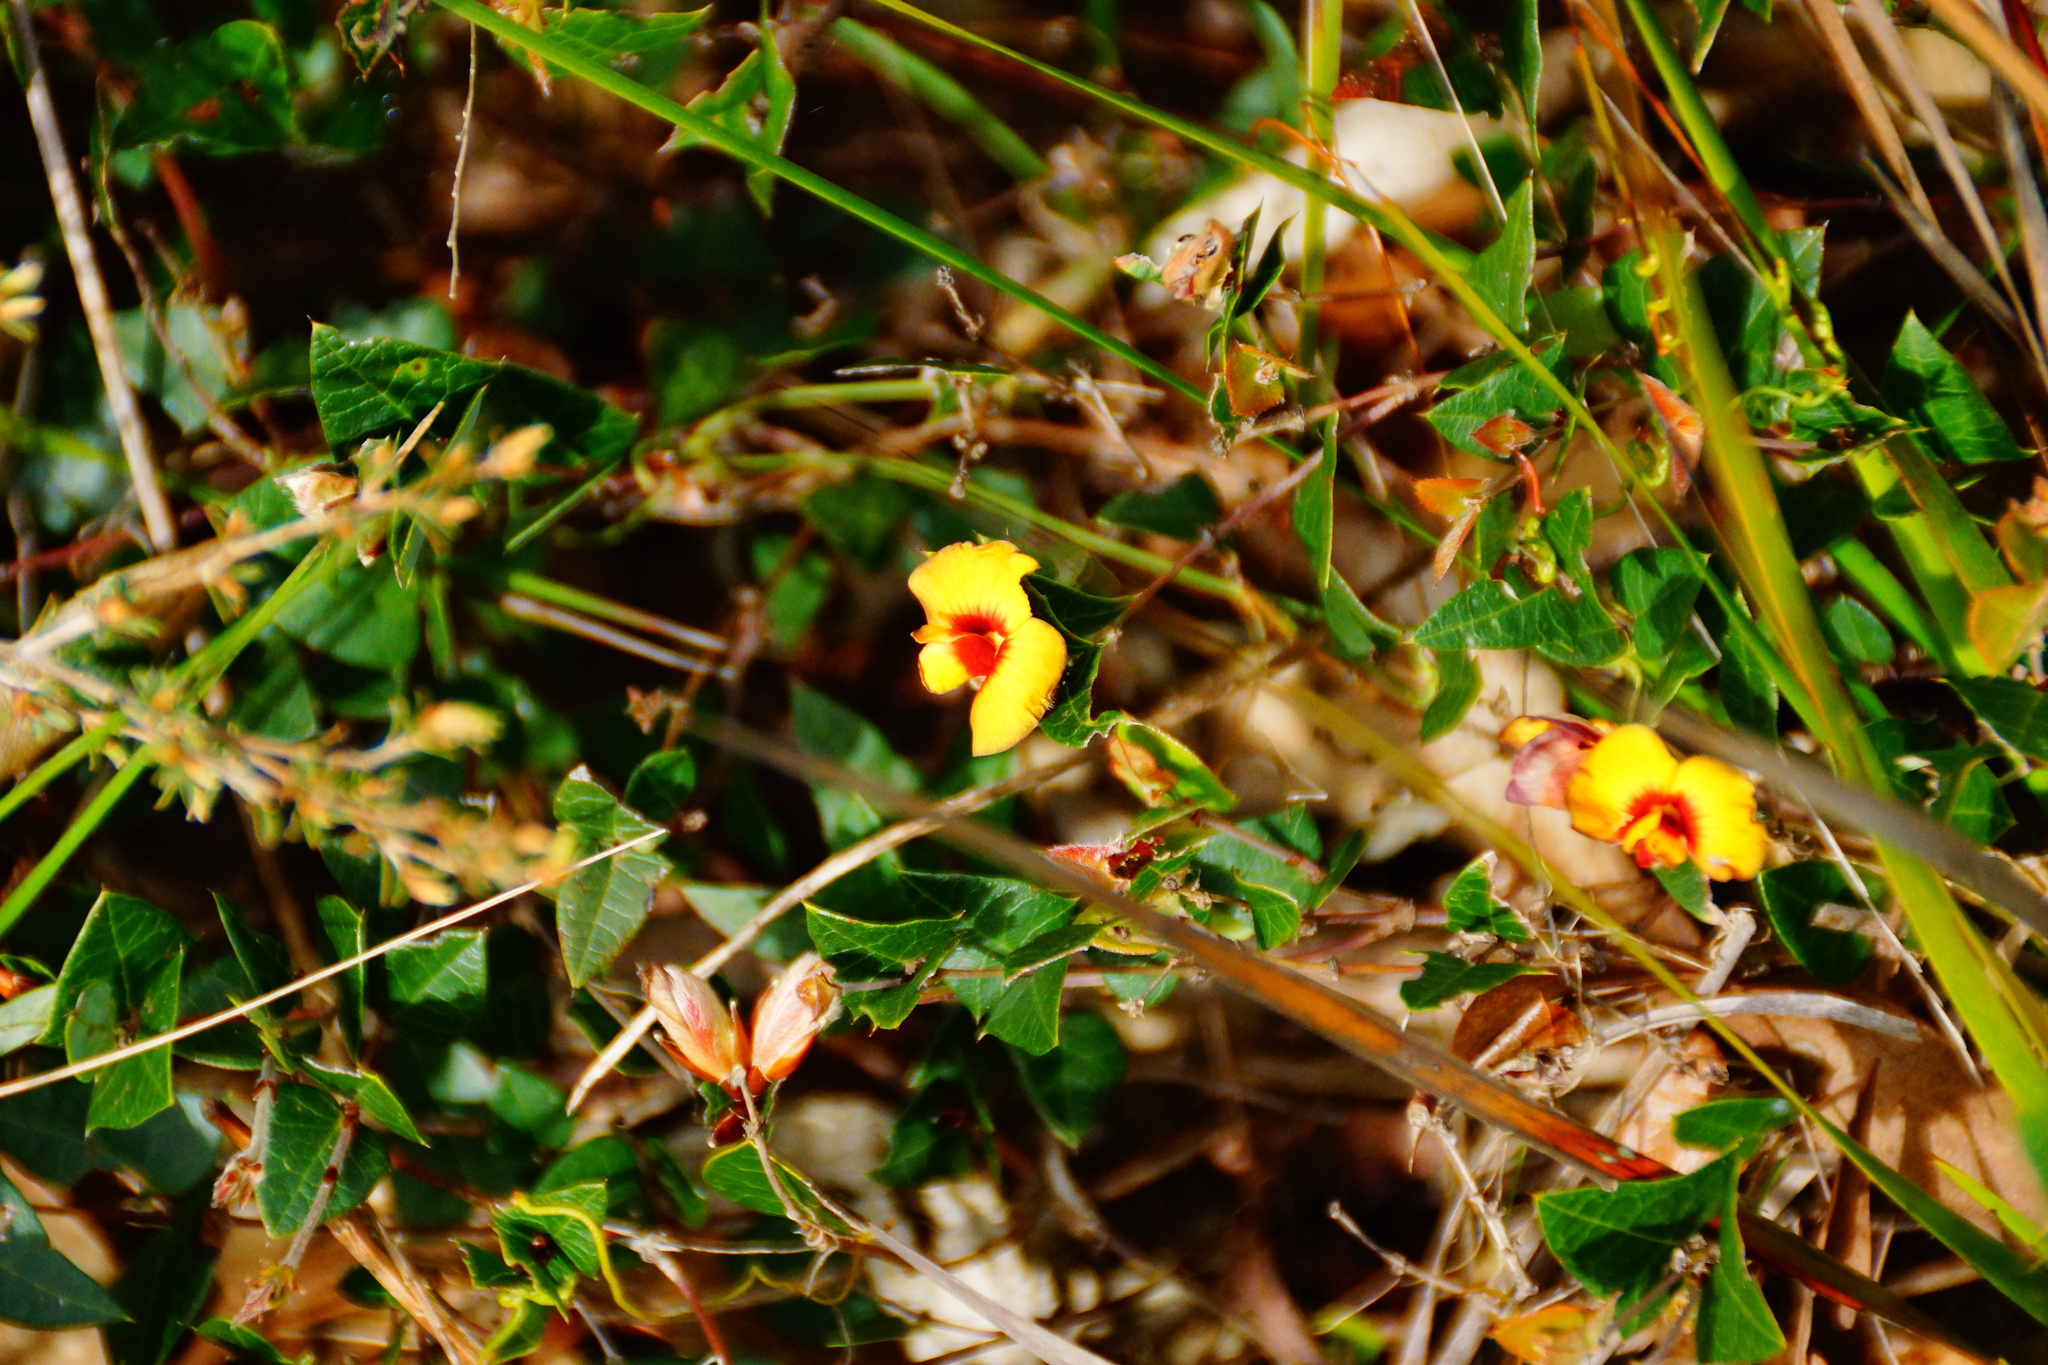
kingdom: Plantae
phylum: Tracheophyta
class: Magnoliopsida
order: Fabales
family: Fabaceae
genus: Platylobium
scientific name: Platylobium obtusangulum
